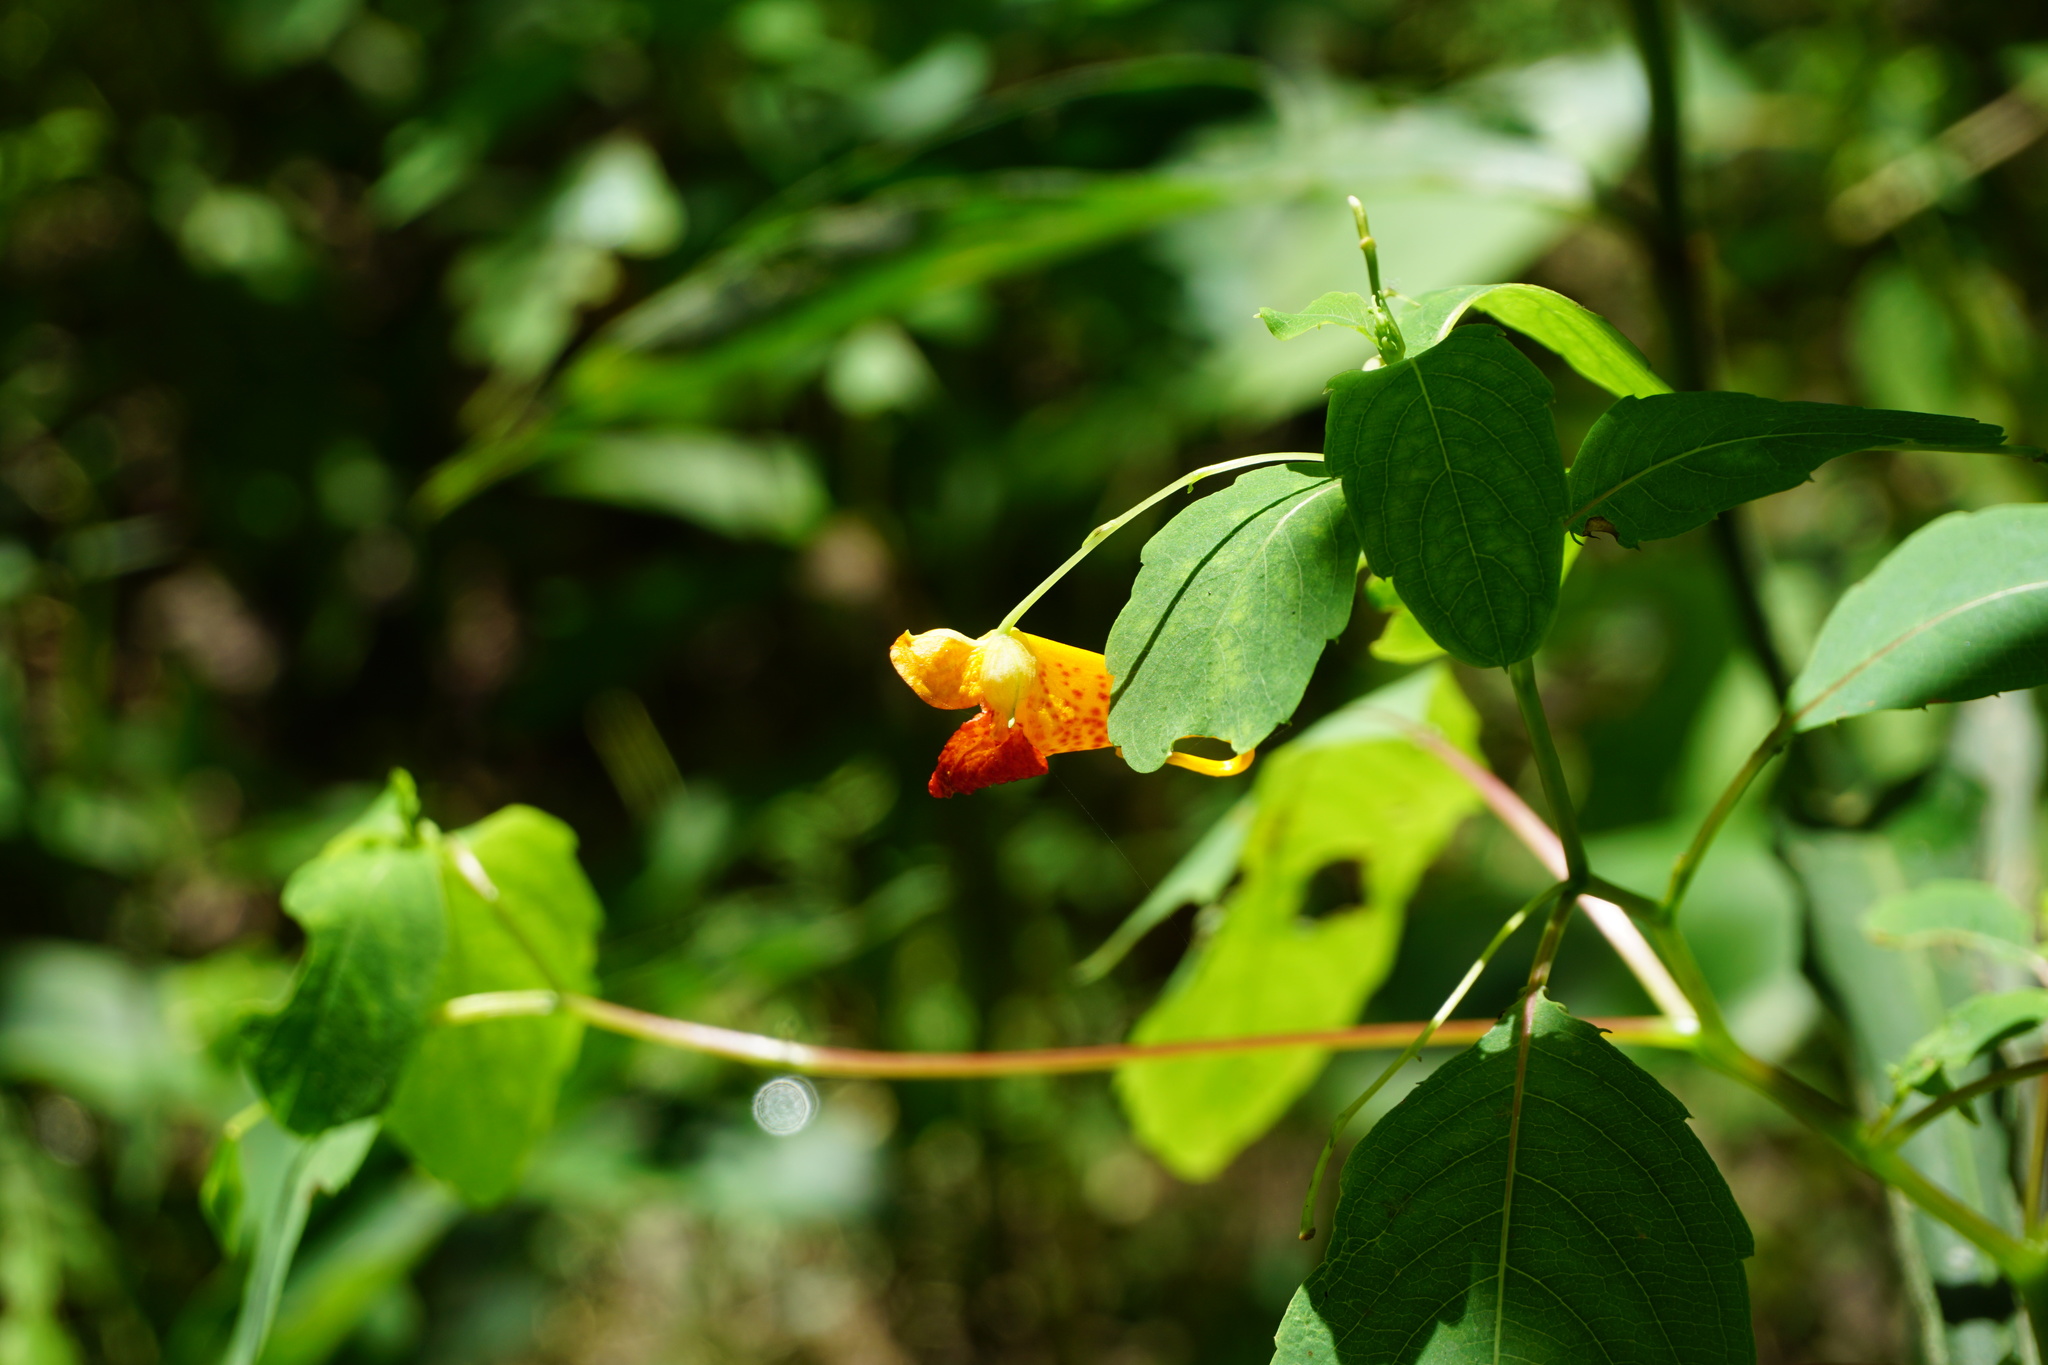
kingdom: Plantae
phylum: Tracheophyta
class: Magnoliopsida
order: Ericales
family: Balsaminaceae
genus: Impatiens
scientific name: Impatiens capensis
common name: Orange balsam
